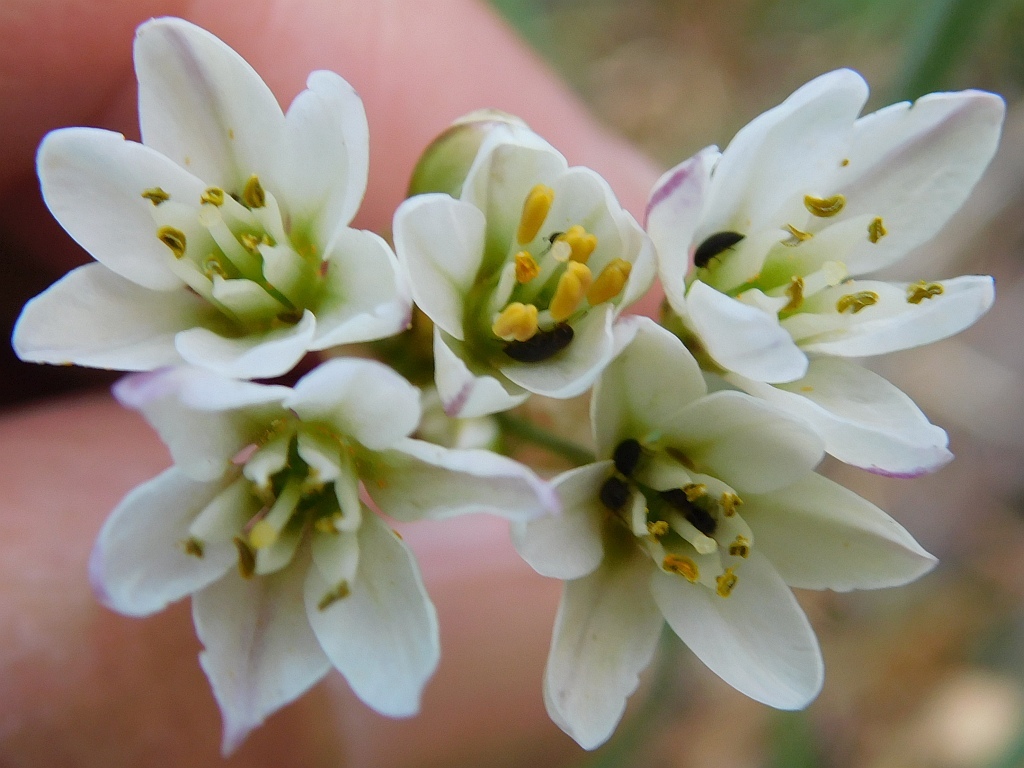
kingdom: Plantae
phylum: Tracheophyta
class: Liliopsida
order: Asparagales
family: Amaryllidaceae
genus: Nothoscordum
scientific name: Nothoscordum gracile
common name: Slender false garlic
